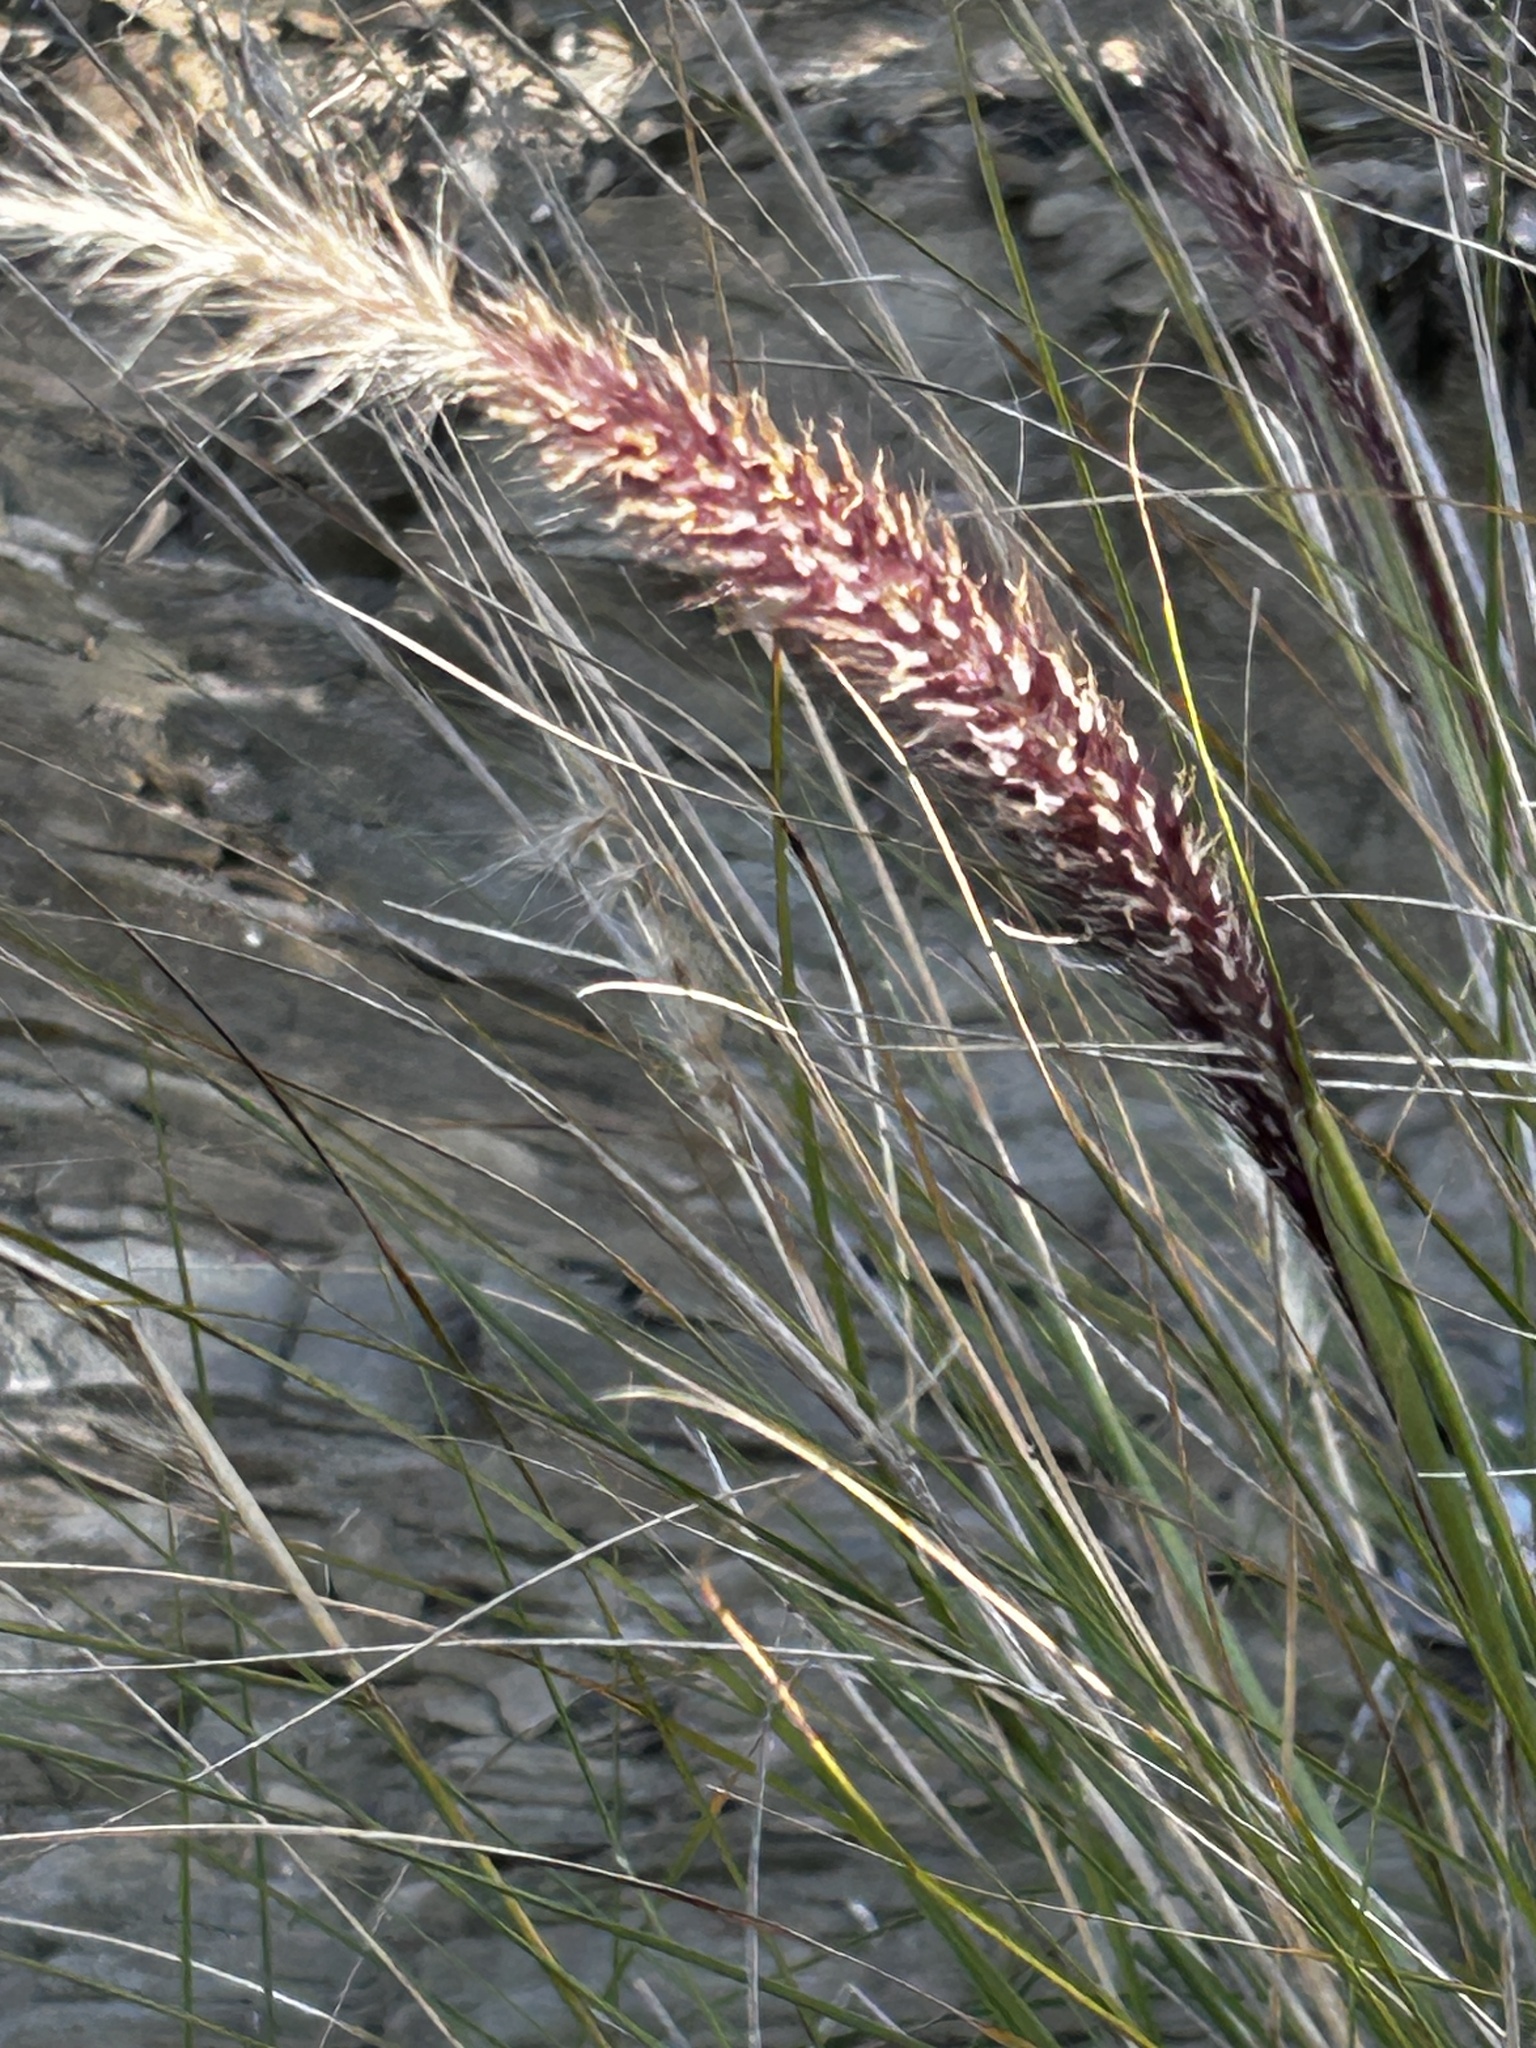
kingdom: Plantae
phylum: Tracheophyta
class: Liliopsida
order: Poales
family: Poaceae
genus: Cenchrus
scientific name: Cenchrus setaceus
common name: Crimson fountaingrass
